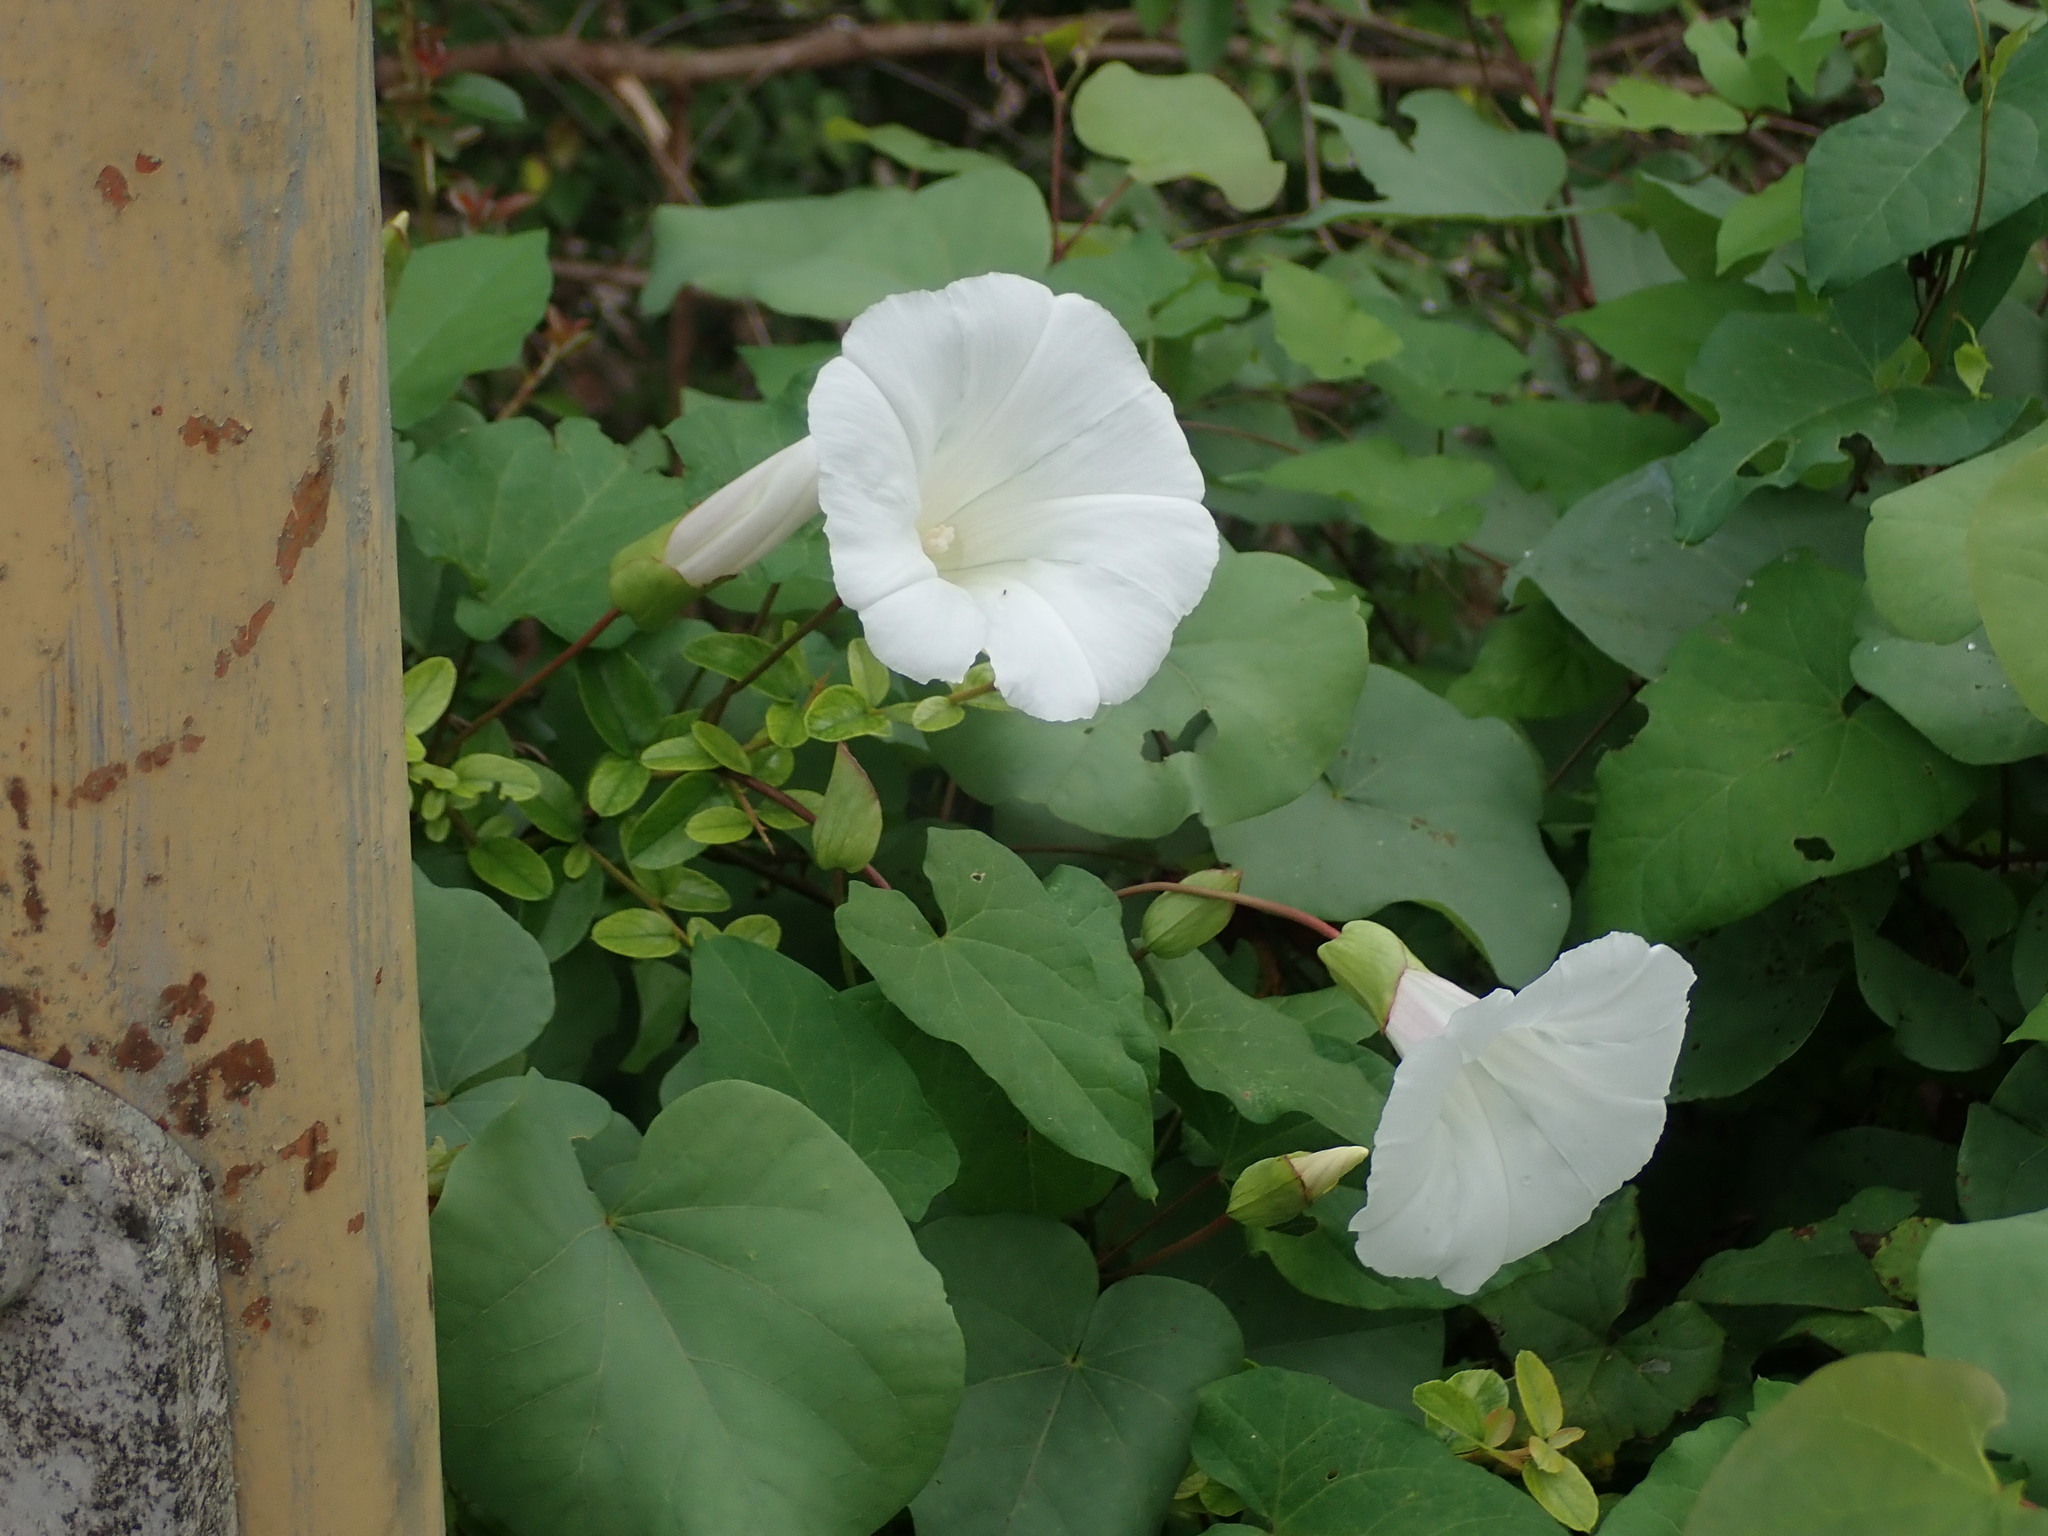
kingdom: Plantae
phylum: Tracheophyta
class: Magnoliopsida
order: Solanales
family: Convolvulaceae
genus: Calystegia
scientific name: Calystegia silvatica
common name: Large bindweed
